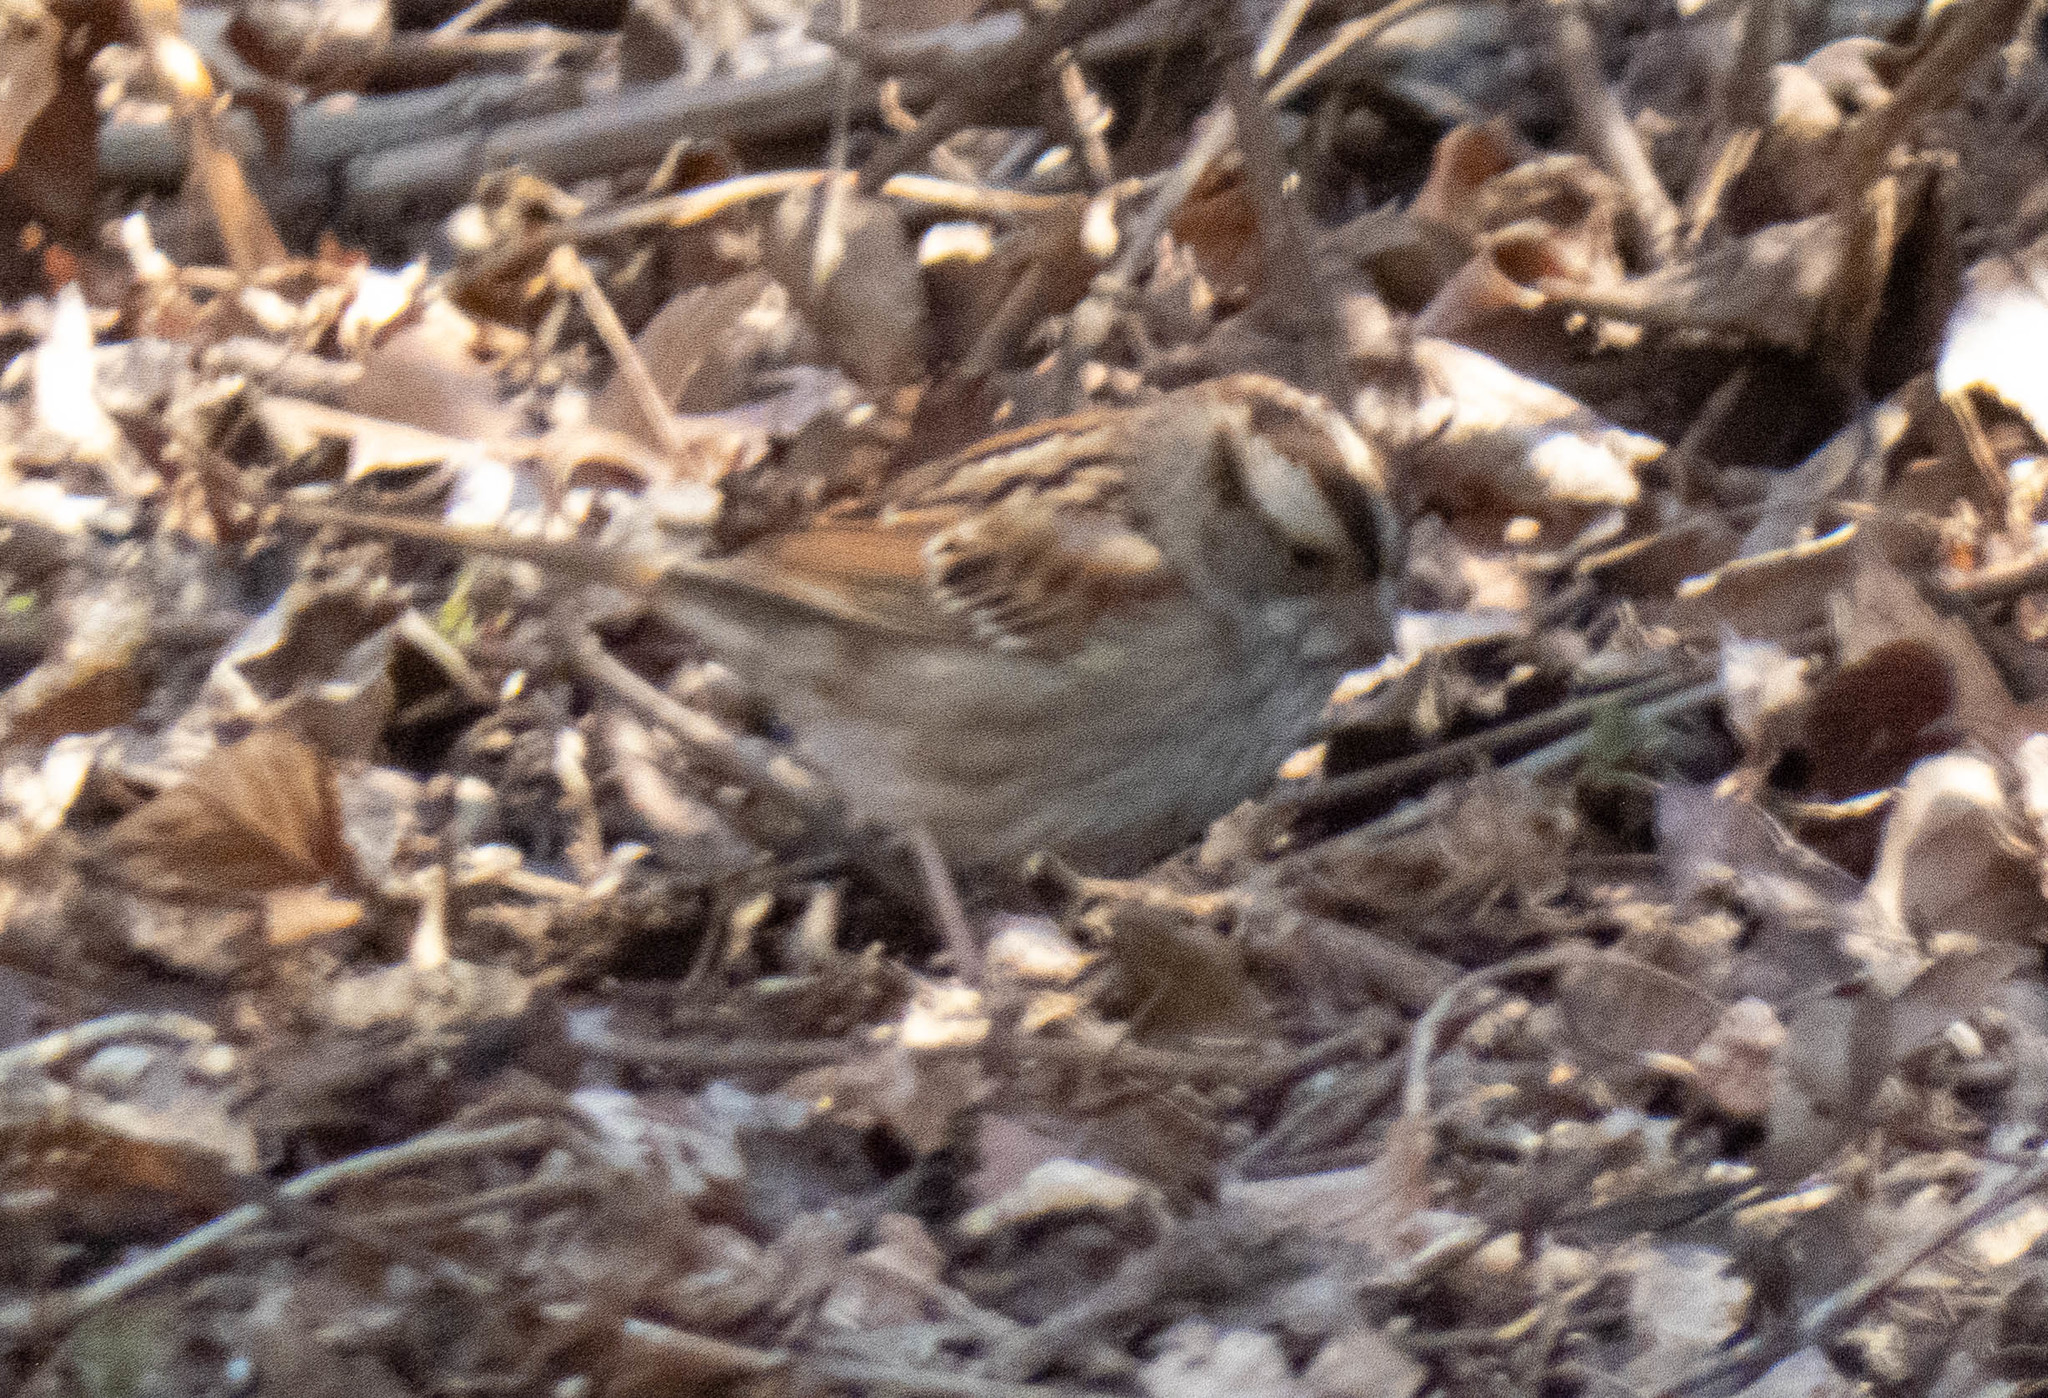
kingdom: Animalia
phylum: Chordata
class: Aves
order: Passeriformes
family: Passerellidae
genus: Zonotrichia
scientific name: Zonotrichia albicollis
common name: White-throated sparrow
